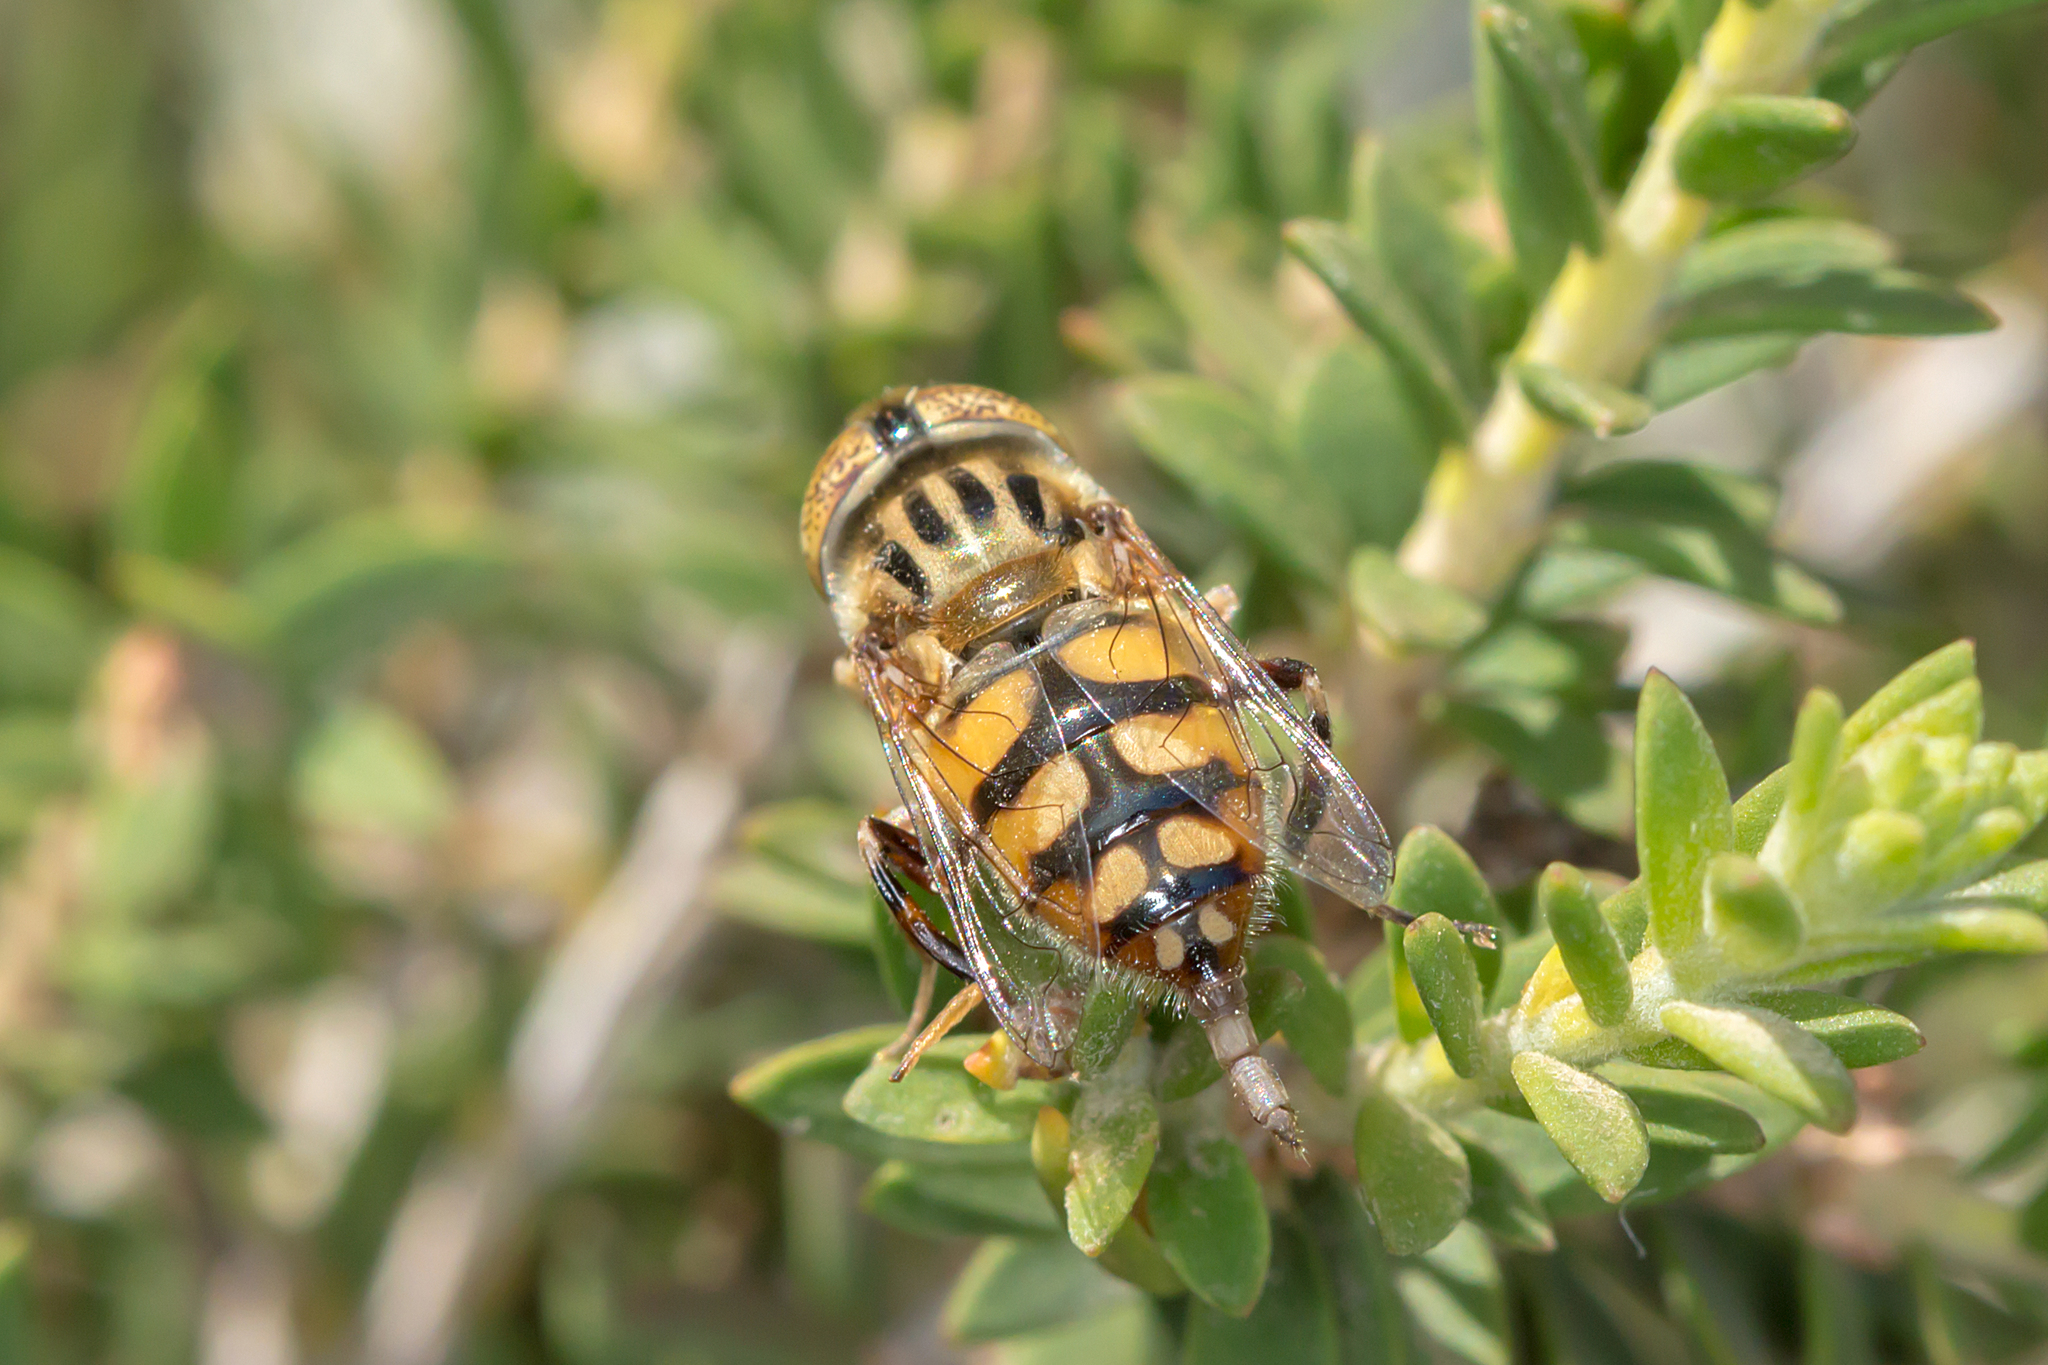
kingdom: Animalia
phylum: Arthropoda
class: Insecta
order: Diptera
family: Syrphidae
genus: Eristalinus
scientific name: Eristalinus punctulatus
